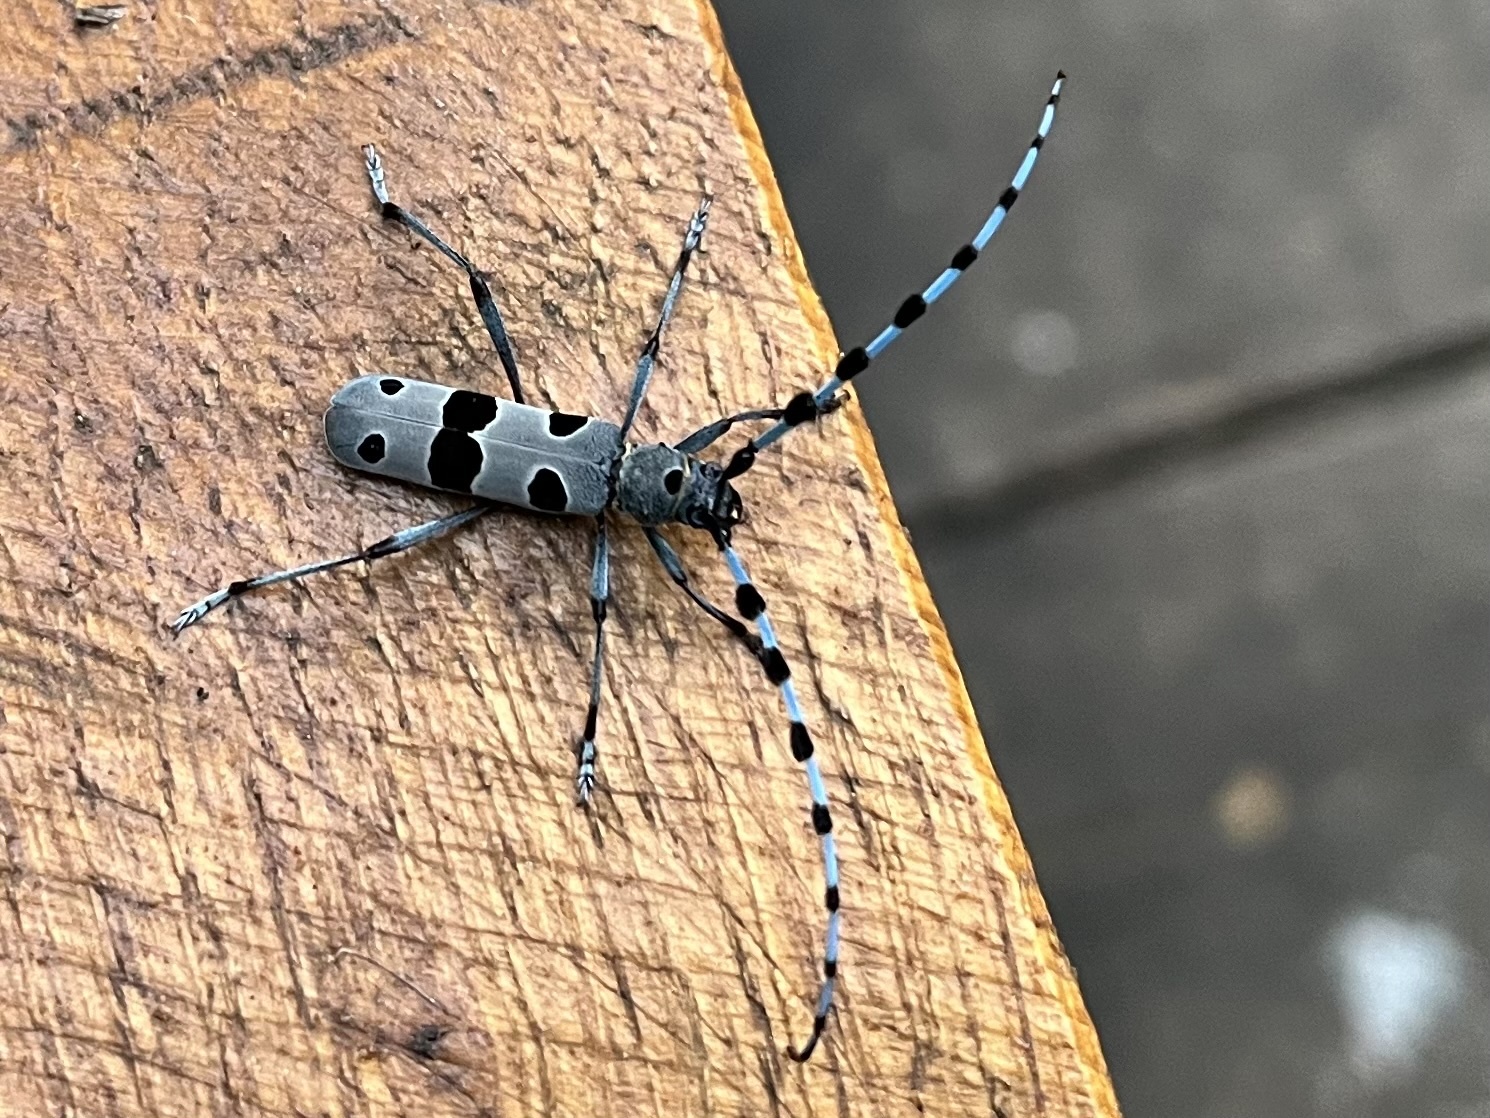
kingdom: Animalia
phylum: Arthropoda
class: Insecta
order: Coleoptera
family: Cerambycidae
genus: Rosalia
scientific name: Rosalia alpina
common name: Rosalia longicorn
